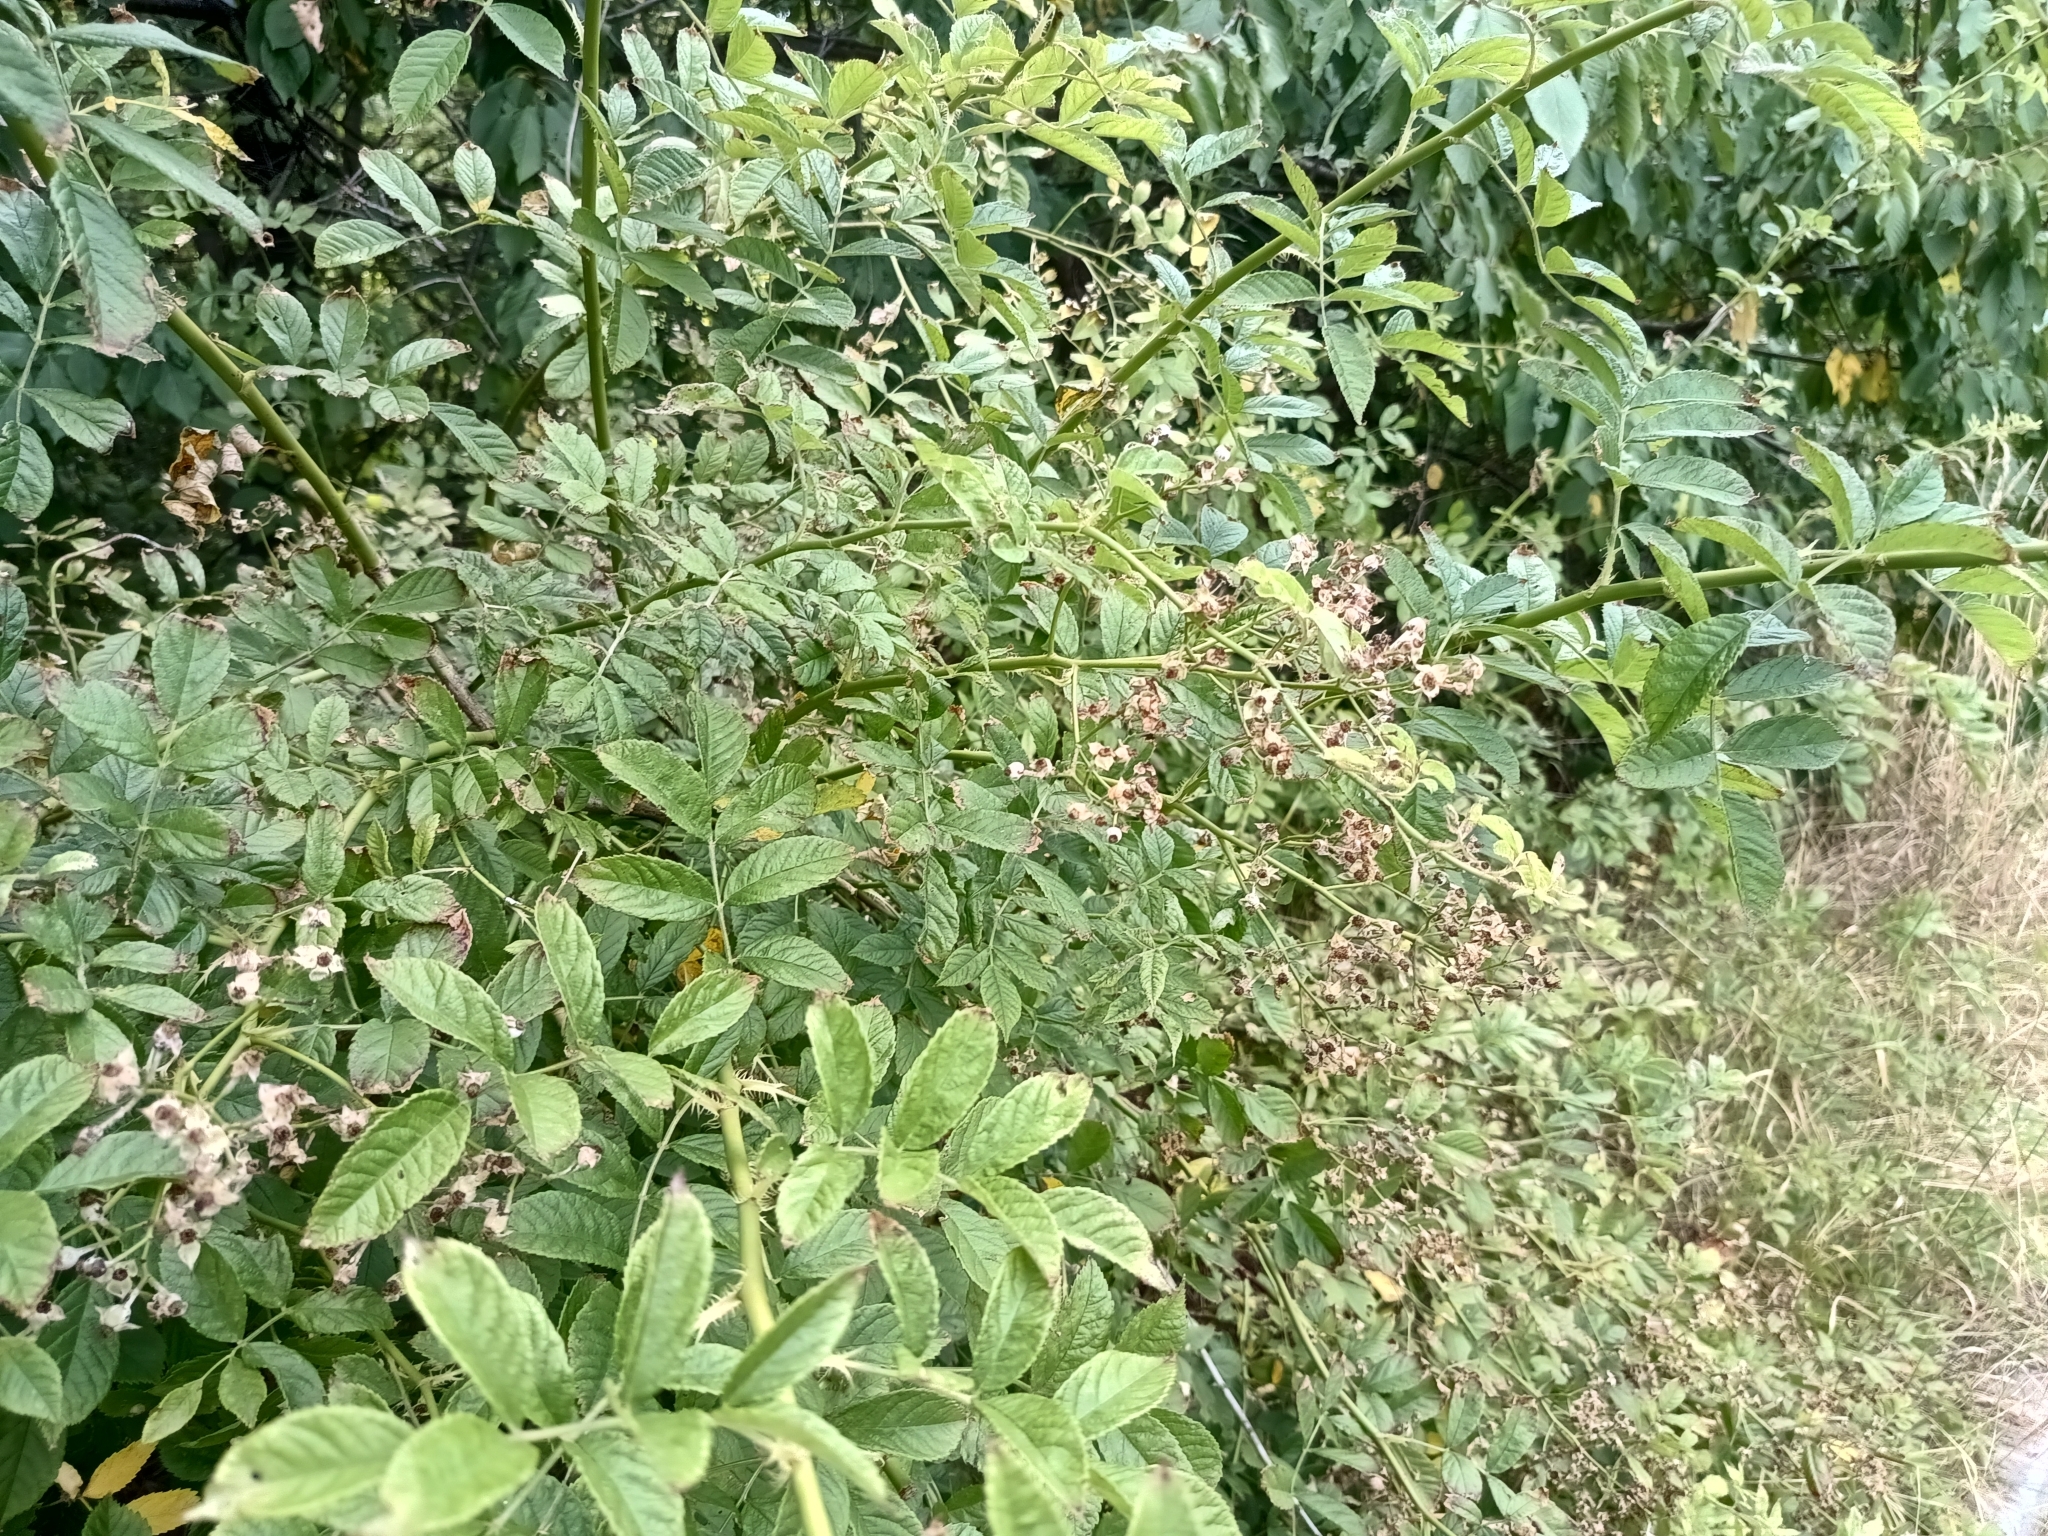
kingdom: Plantae
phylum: Tracheophyta
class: Magnoliopsida
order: Rosales
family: Rosaceae
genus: Rosa
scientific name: Rosa multiflora
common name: Multiflora rose
